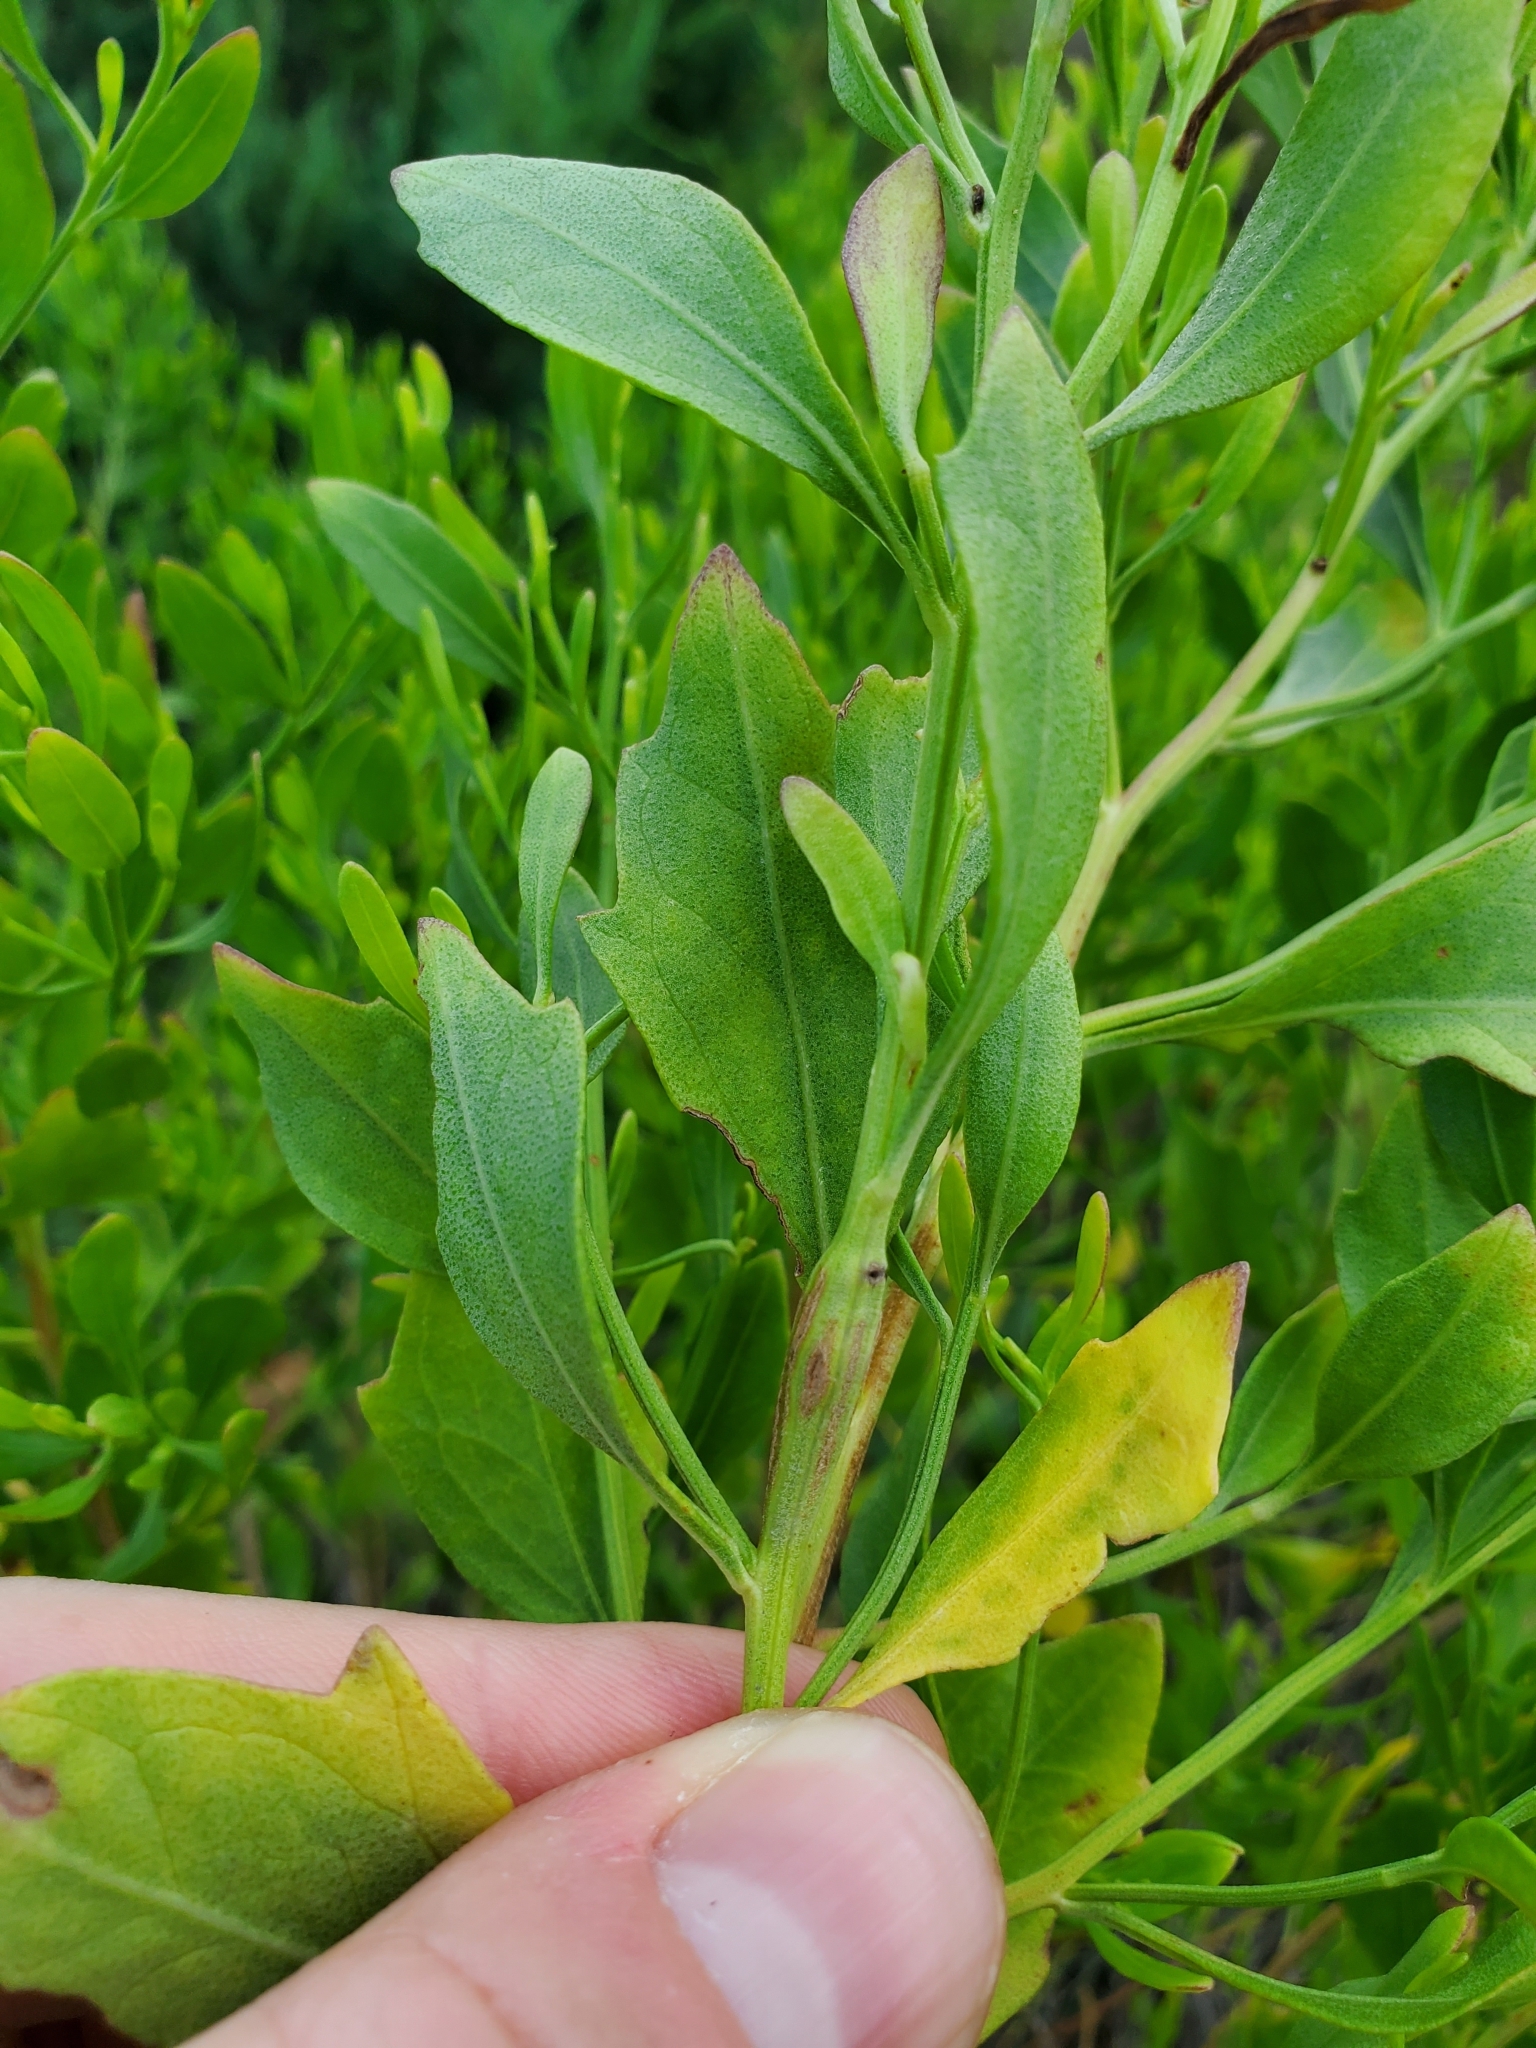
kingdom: Plantae
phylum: Tracheophyta
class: Magnoliopsida
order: Asterales
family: Asteraceae
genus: Baccharis
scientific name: Baccharis halimifolia
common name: Eastern baccharis
